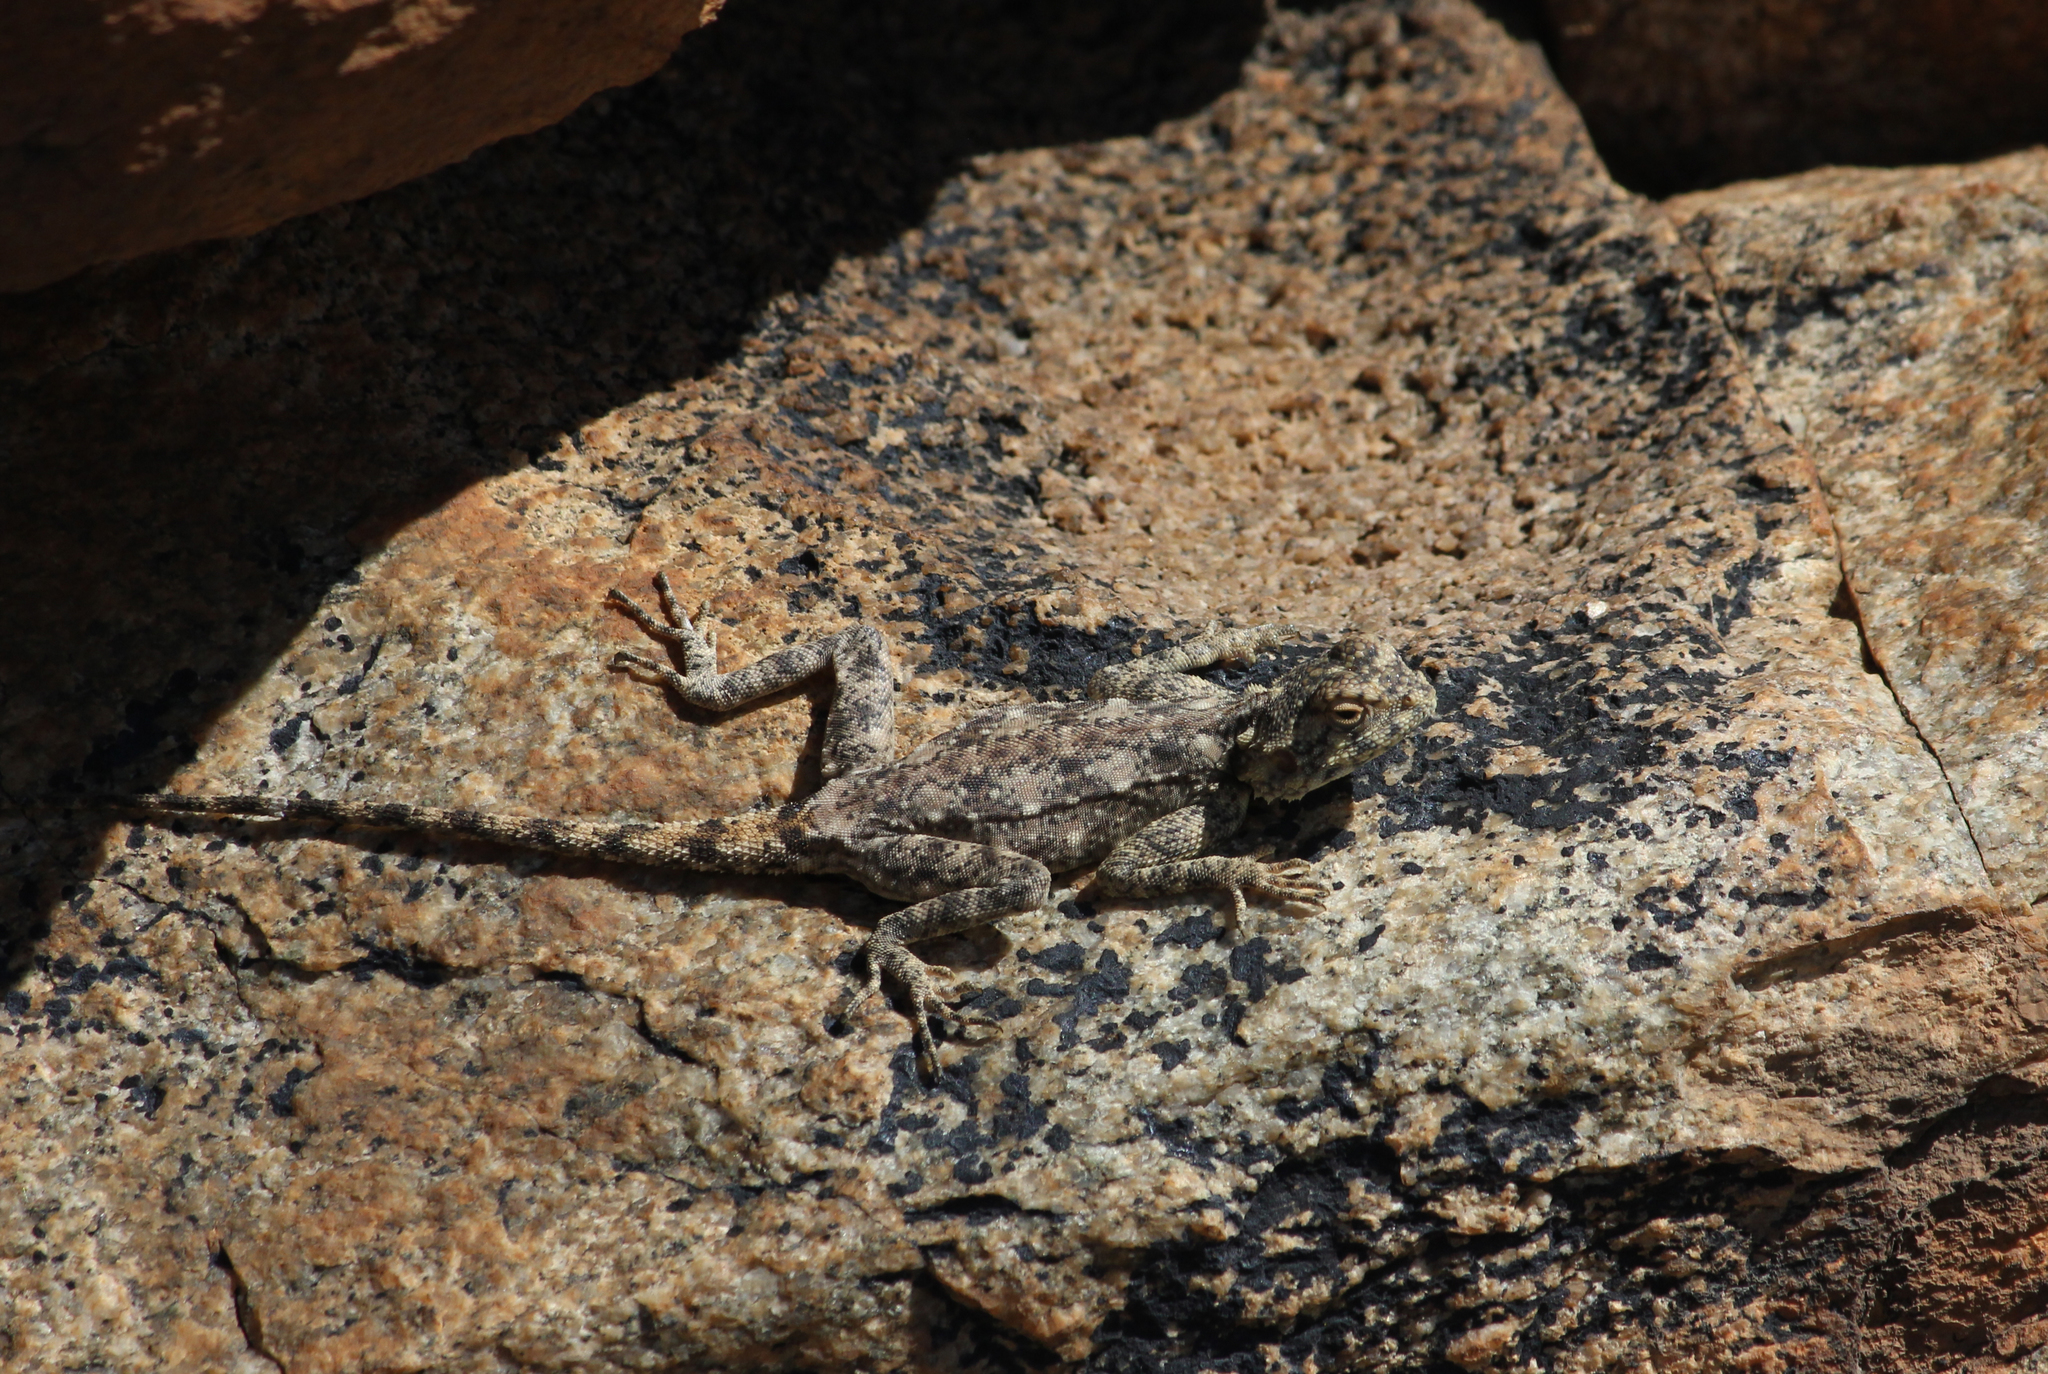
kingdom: Animalia
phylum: Chordata
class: Squamata
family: Agamidae
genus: Agama
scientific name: Agama atra
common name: Southern african rock agama
